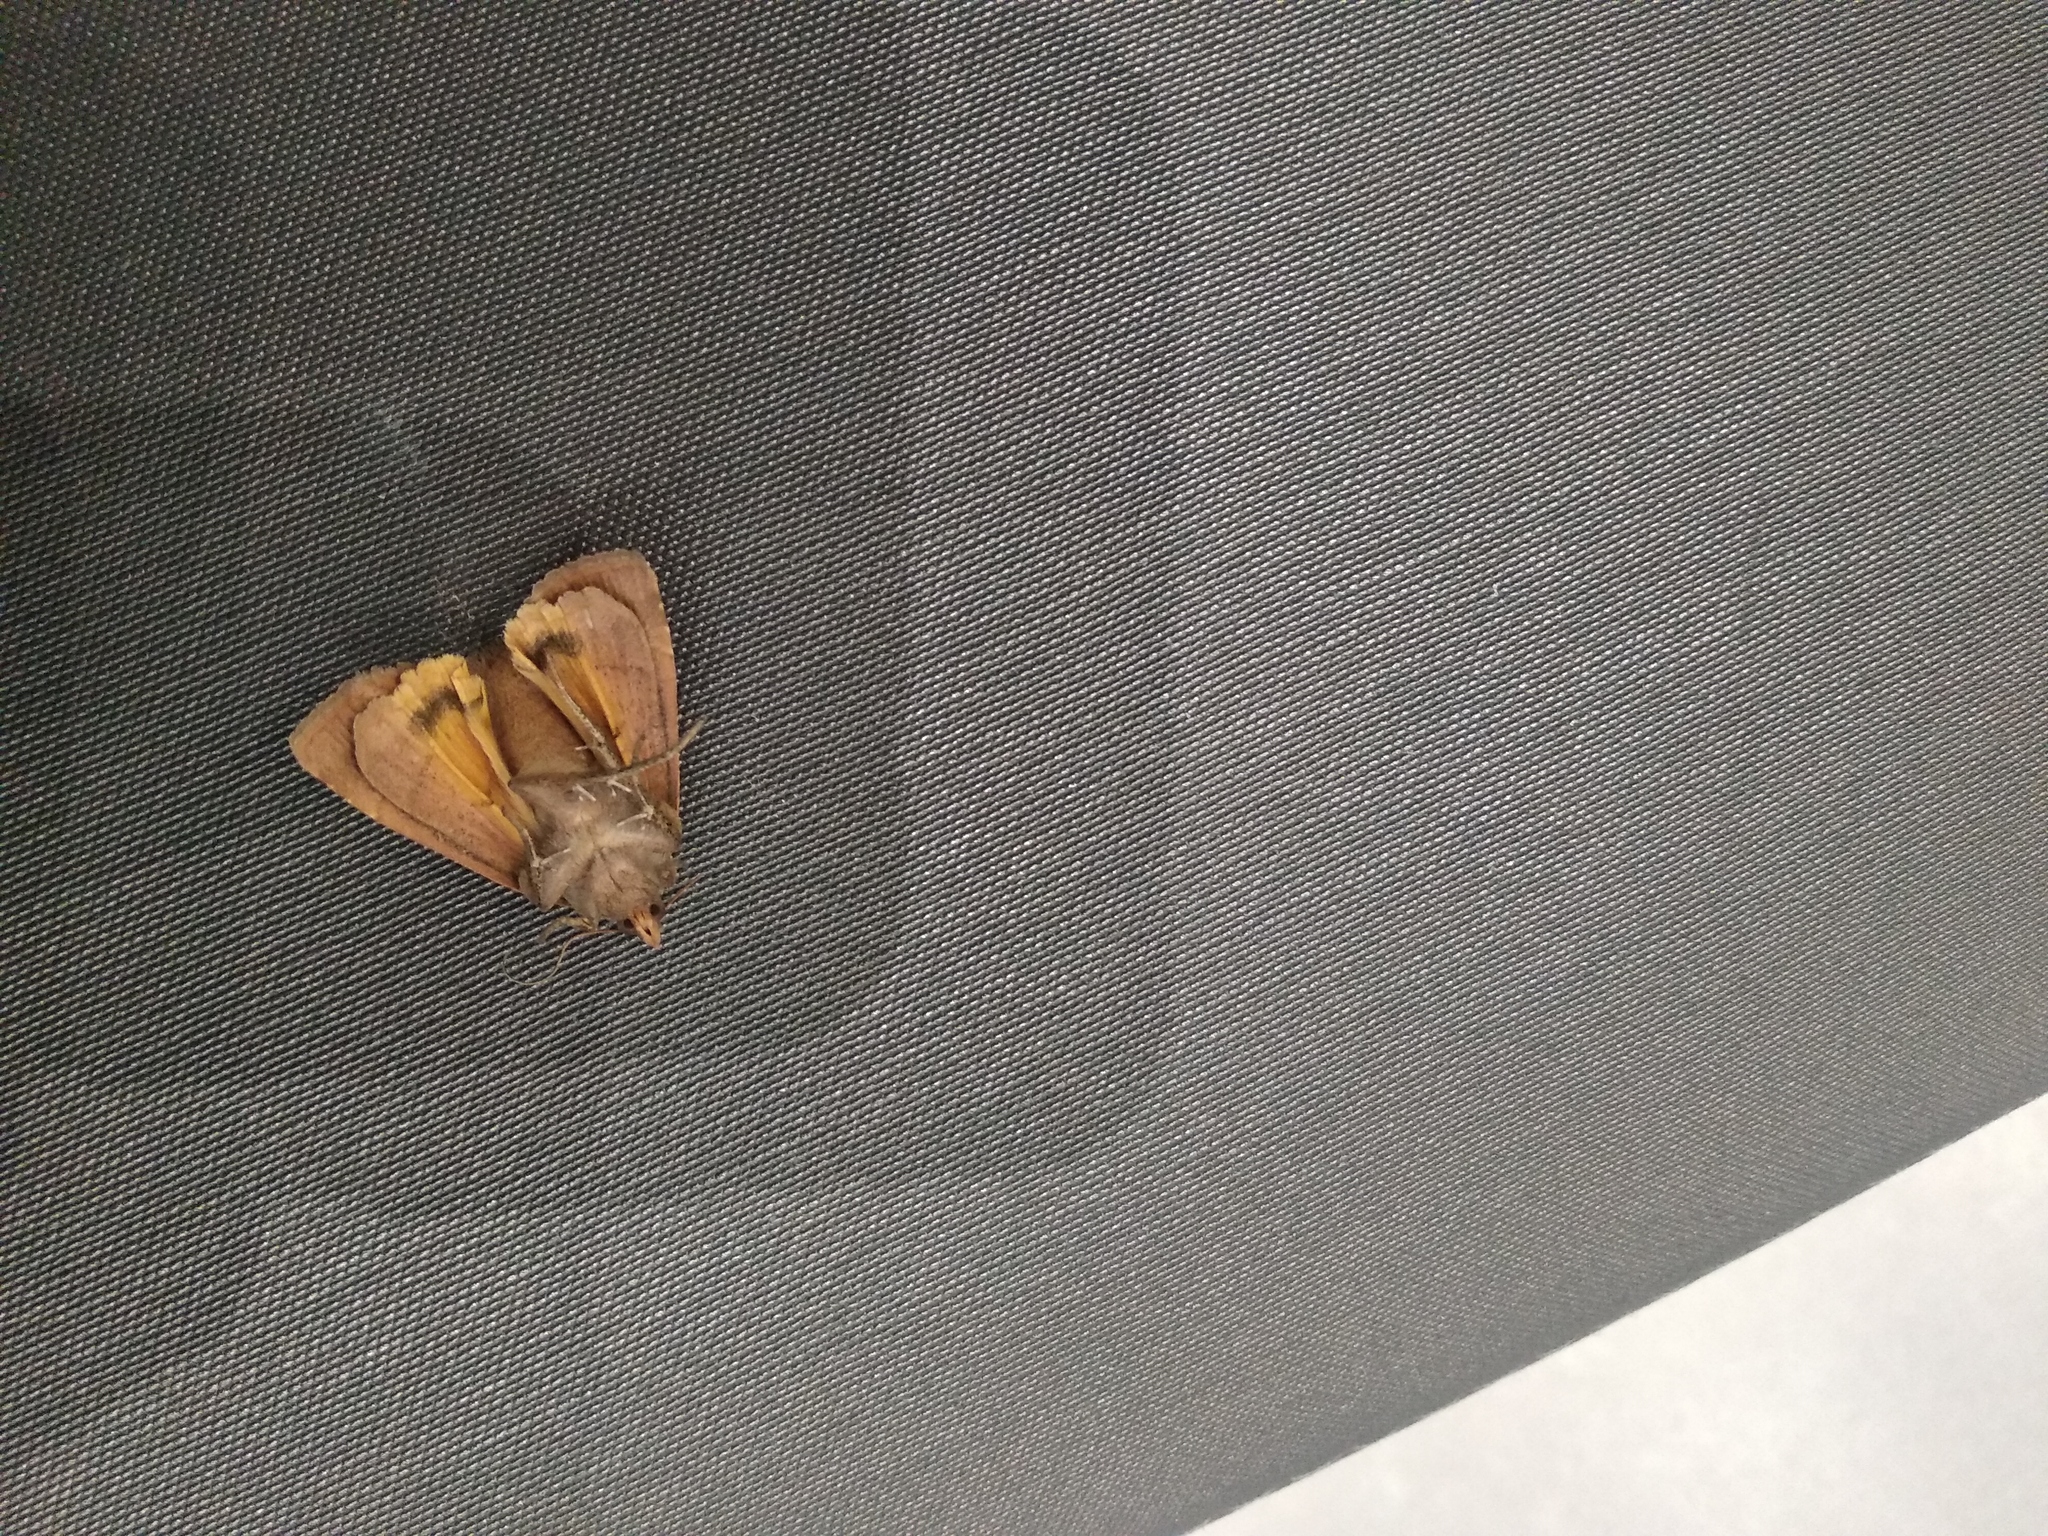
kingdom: Animalia
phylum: Arthropoda
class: Insecta
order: Lepidoptera
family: Noctuidae
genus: Noctua
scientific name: Noctua comes
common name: Lesser yellow underwing
